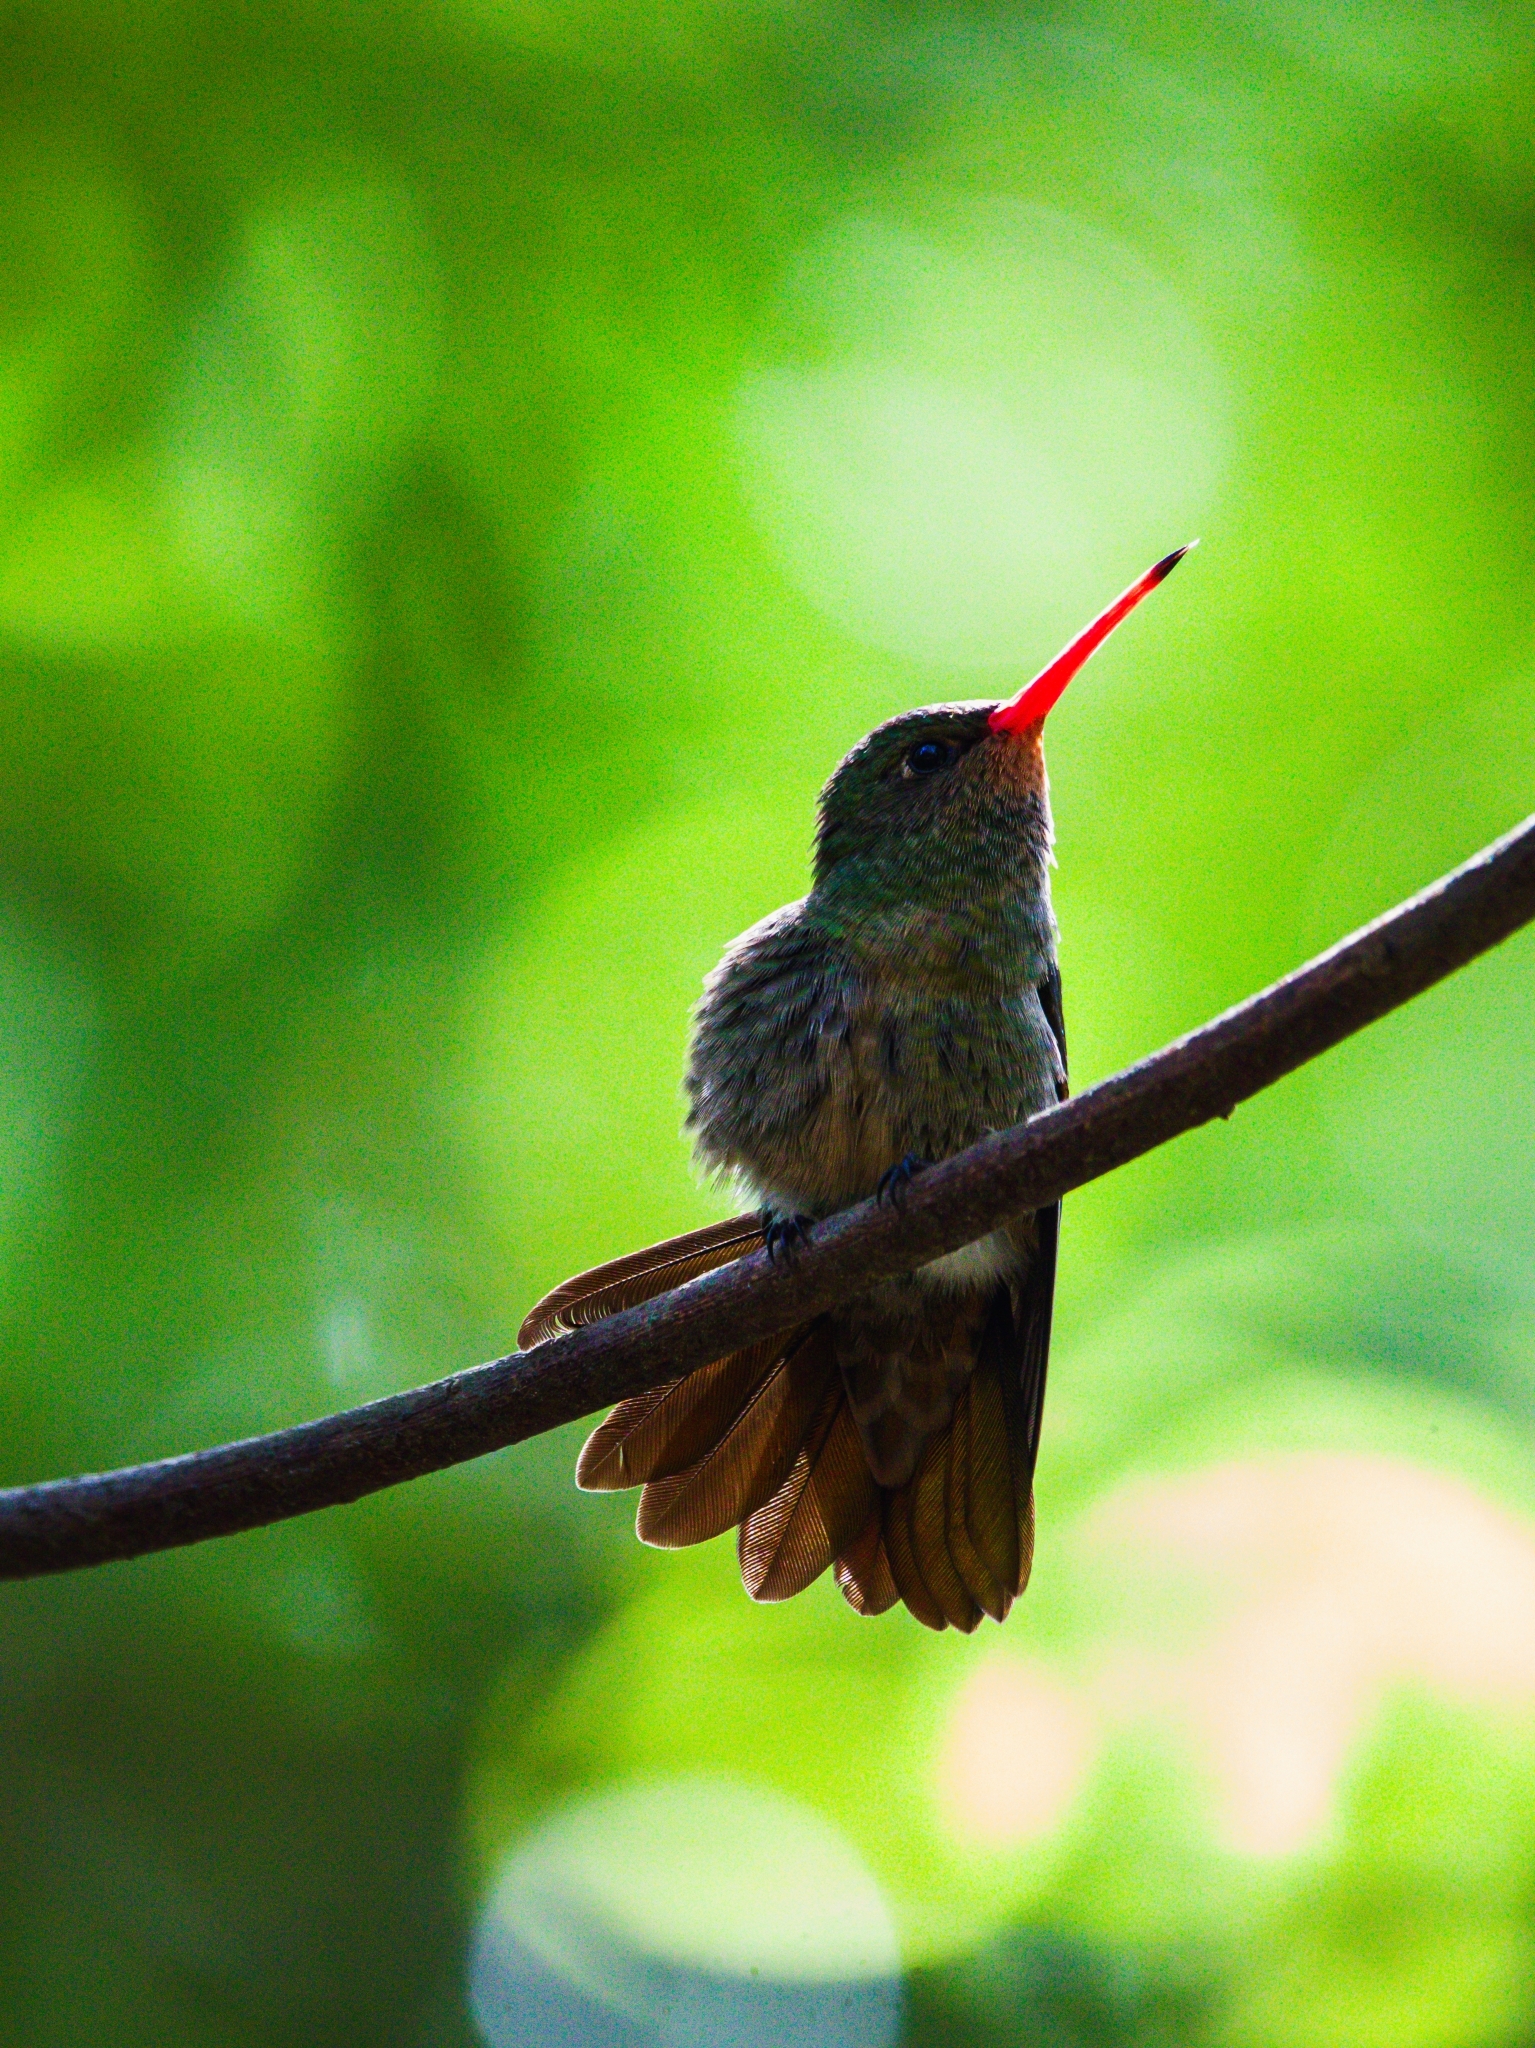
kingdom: Animalia
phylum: Chordata
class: Aves
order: Apodiformes
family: Trochilidae
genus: Hylocharis
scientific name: Hylocharis chrysura
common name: Gilded sapphire
